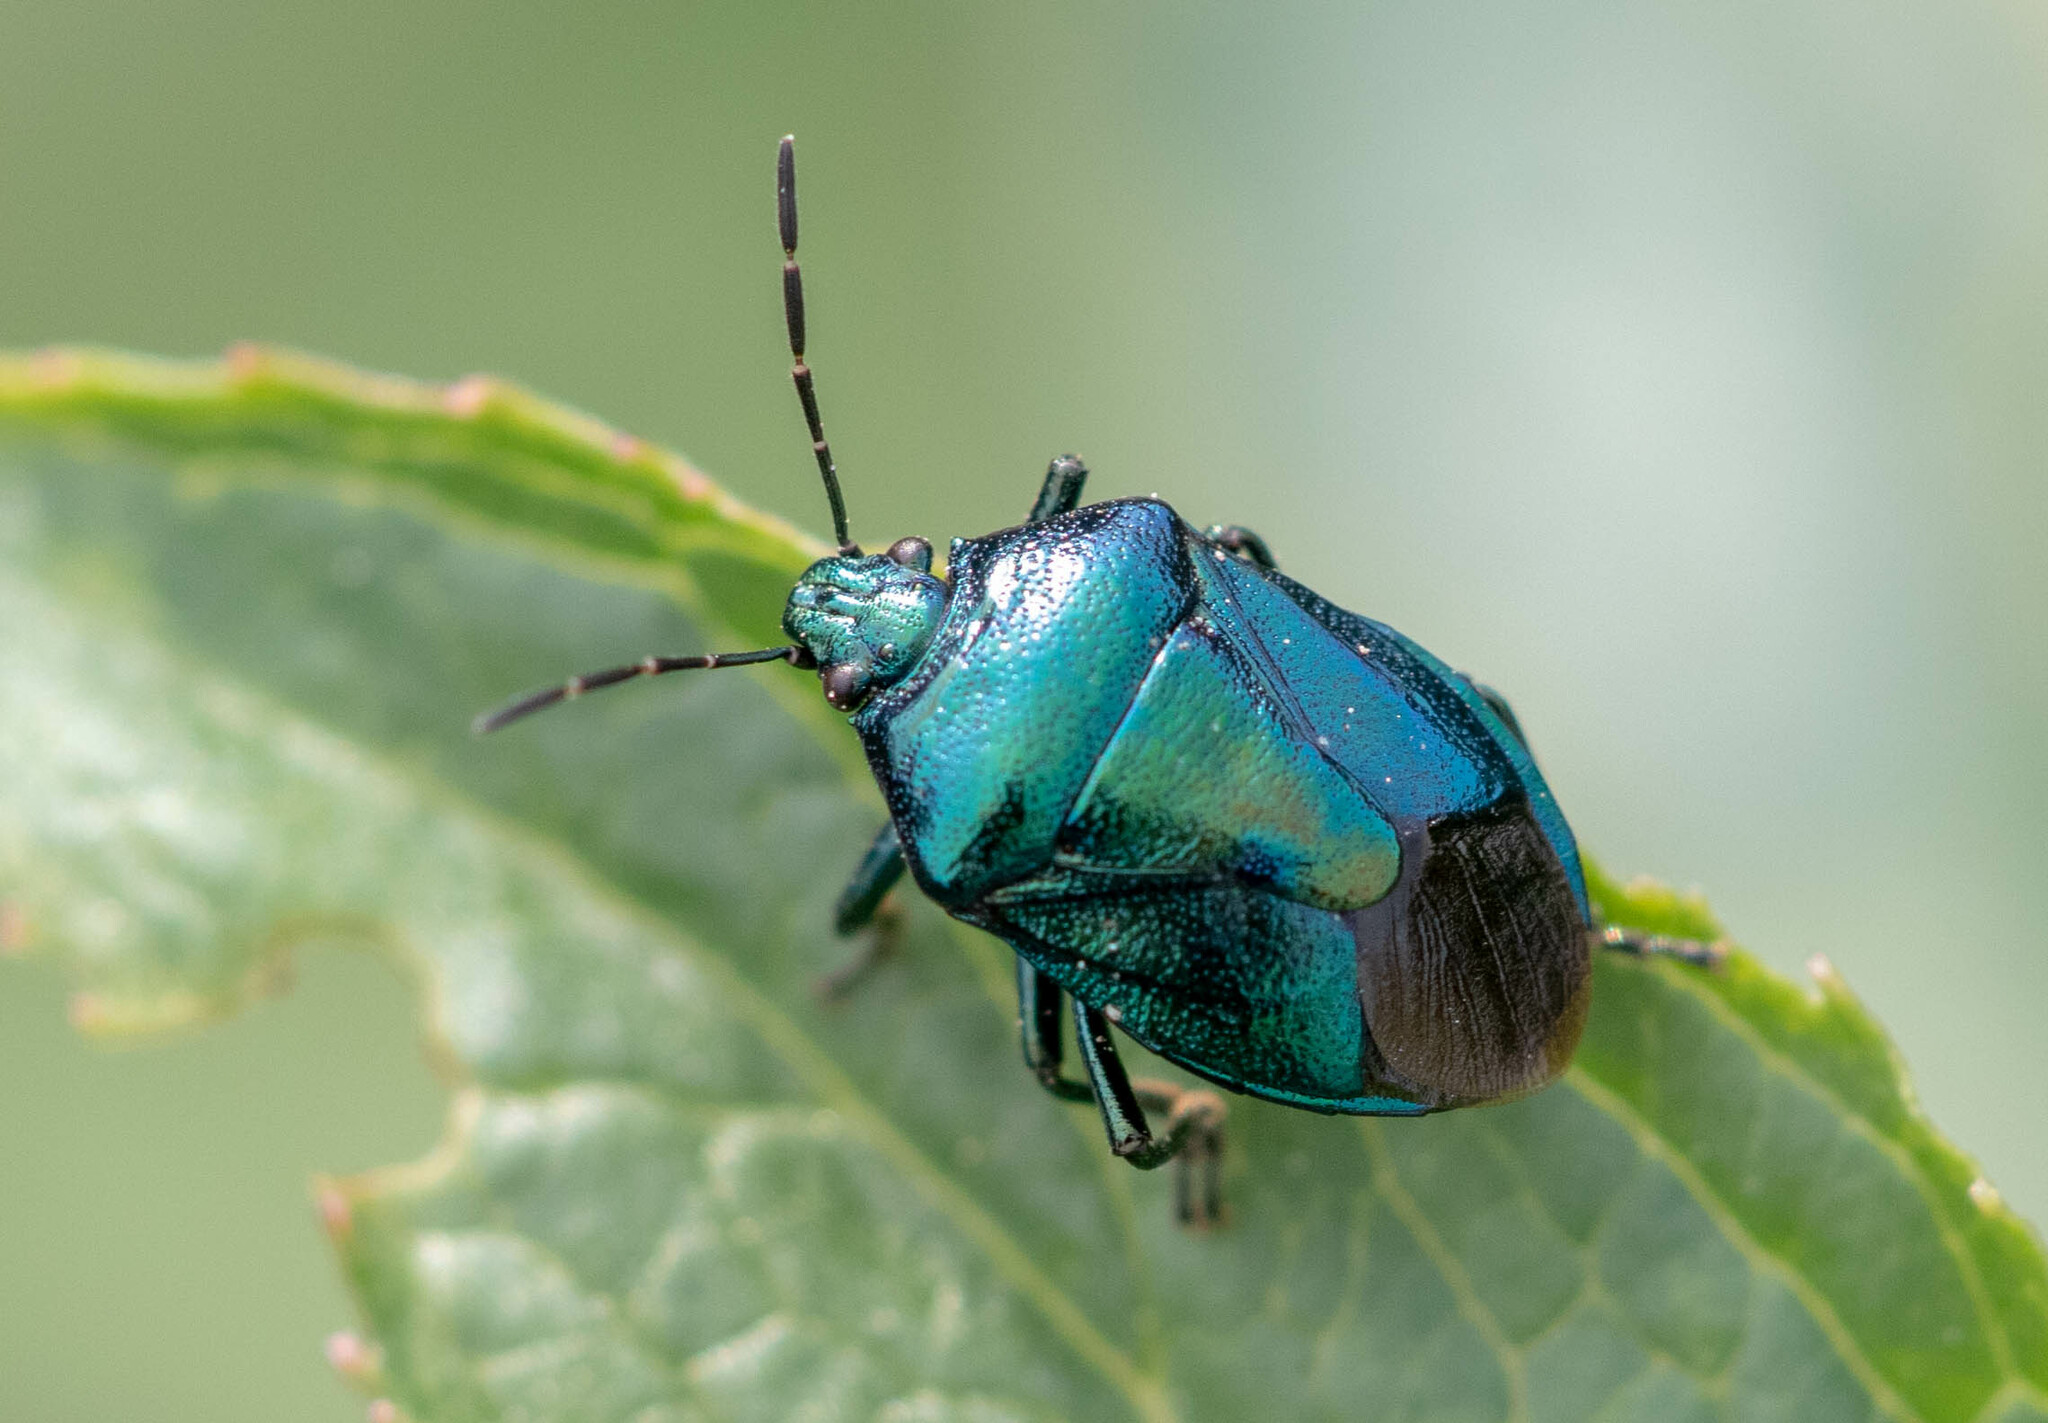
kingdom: Animalia
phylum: Arthropoda
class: Insecta
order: Hemiptera
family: Pentatomidae
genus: Zicrona
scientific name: Zicrona caerulea
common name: Blue shieldbug
